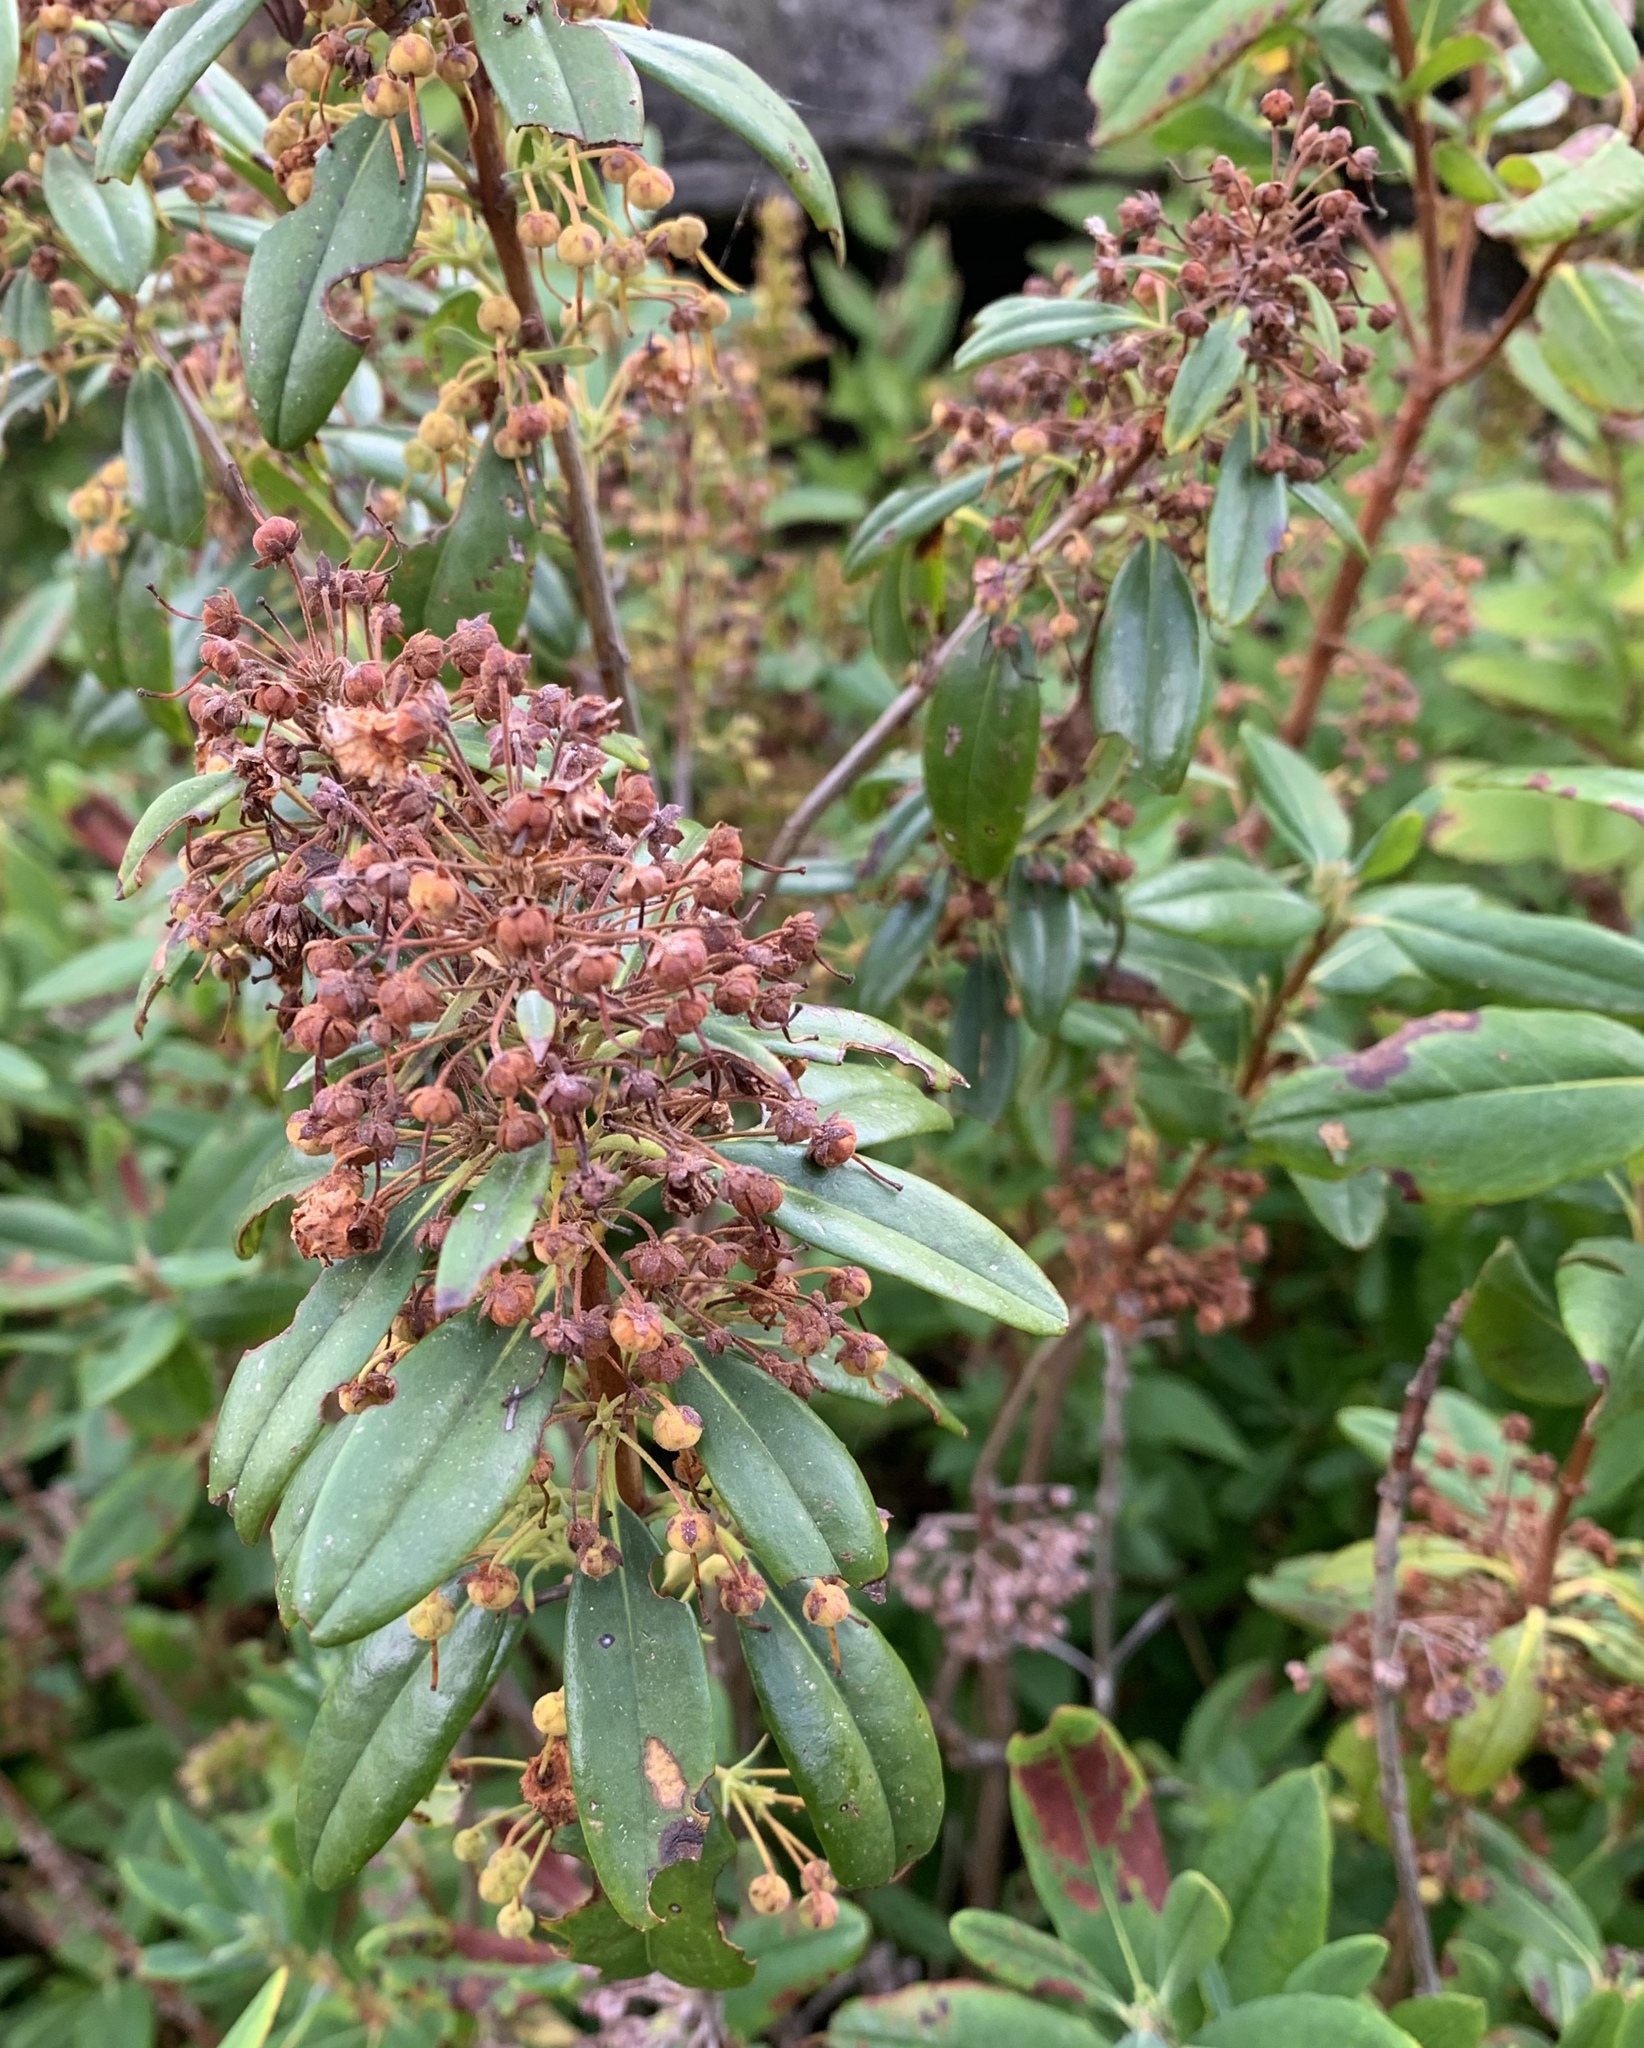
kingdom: Plantae
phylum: Tracheophyta
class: Magnoliopsida
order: Ericales
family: Ericaceae
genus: Rhododendron
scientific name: Rhododendron groenlandicum
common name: Bog labrador tea
